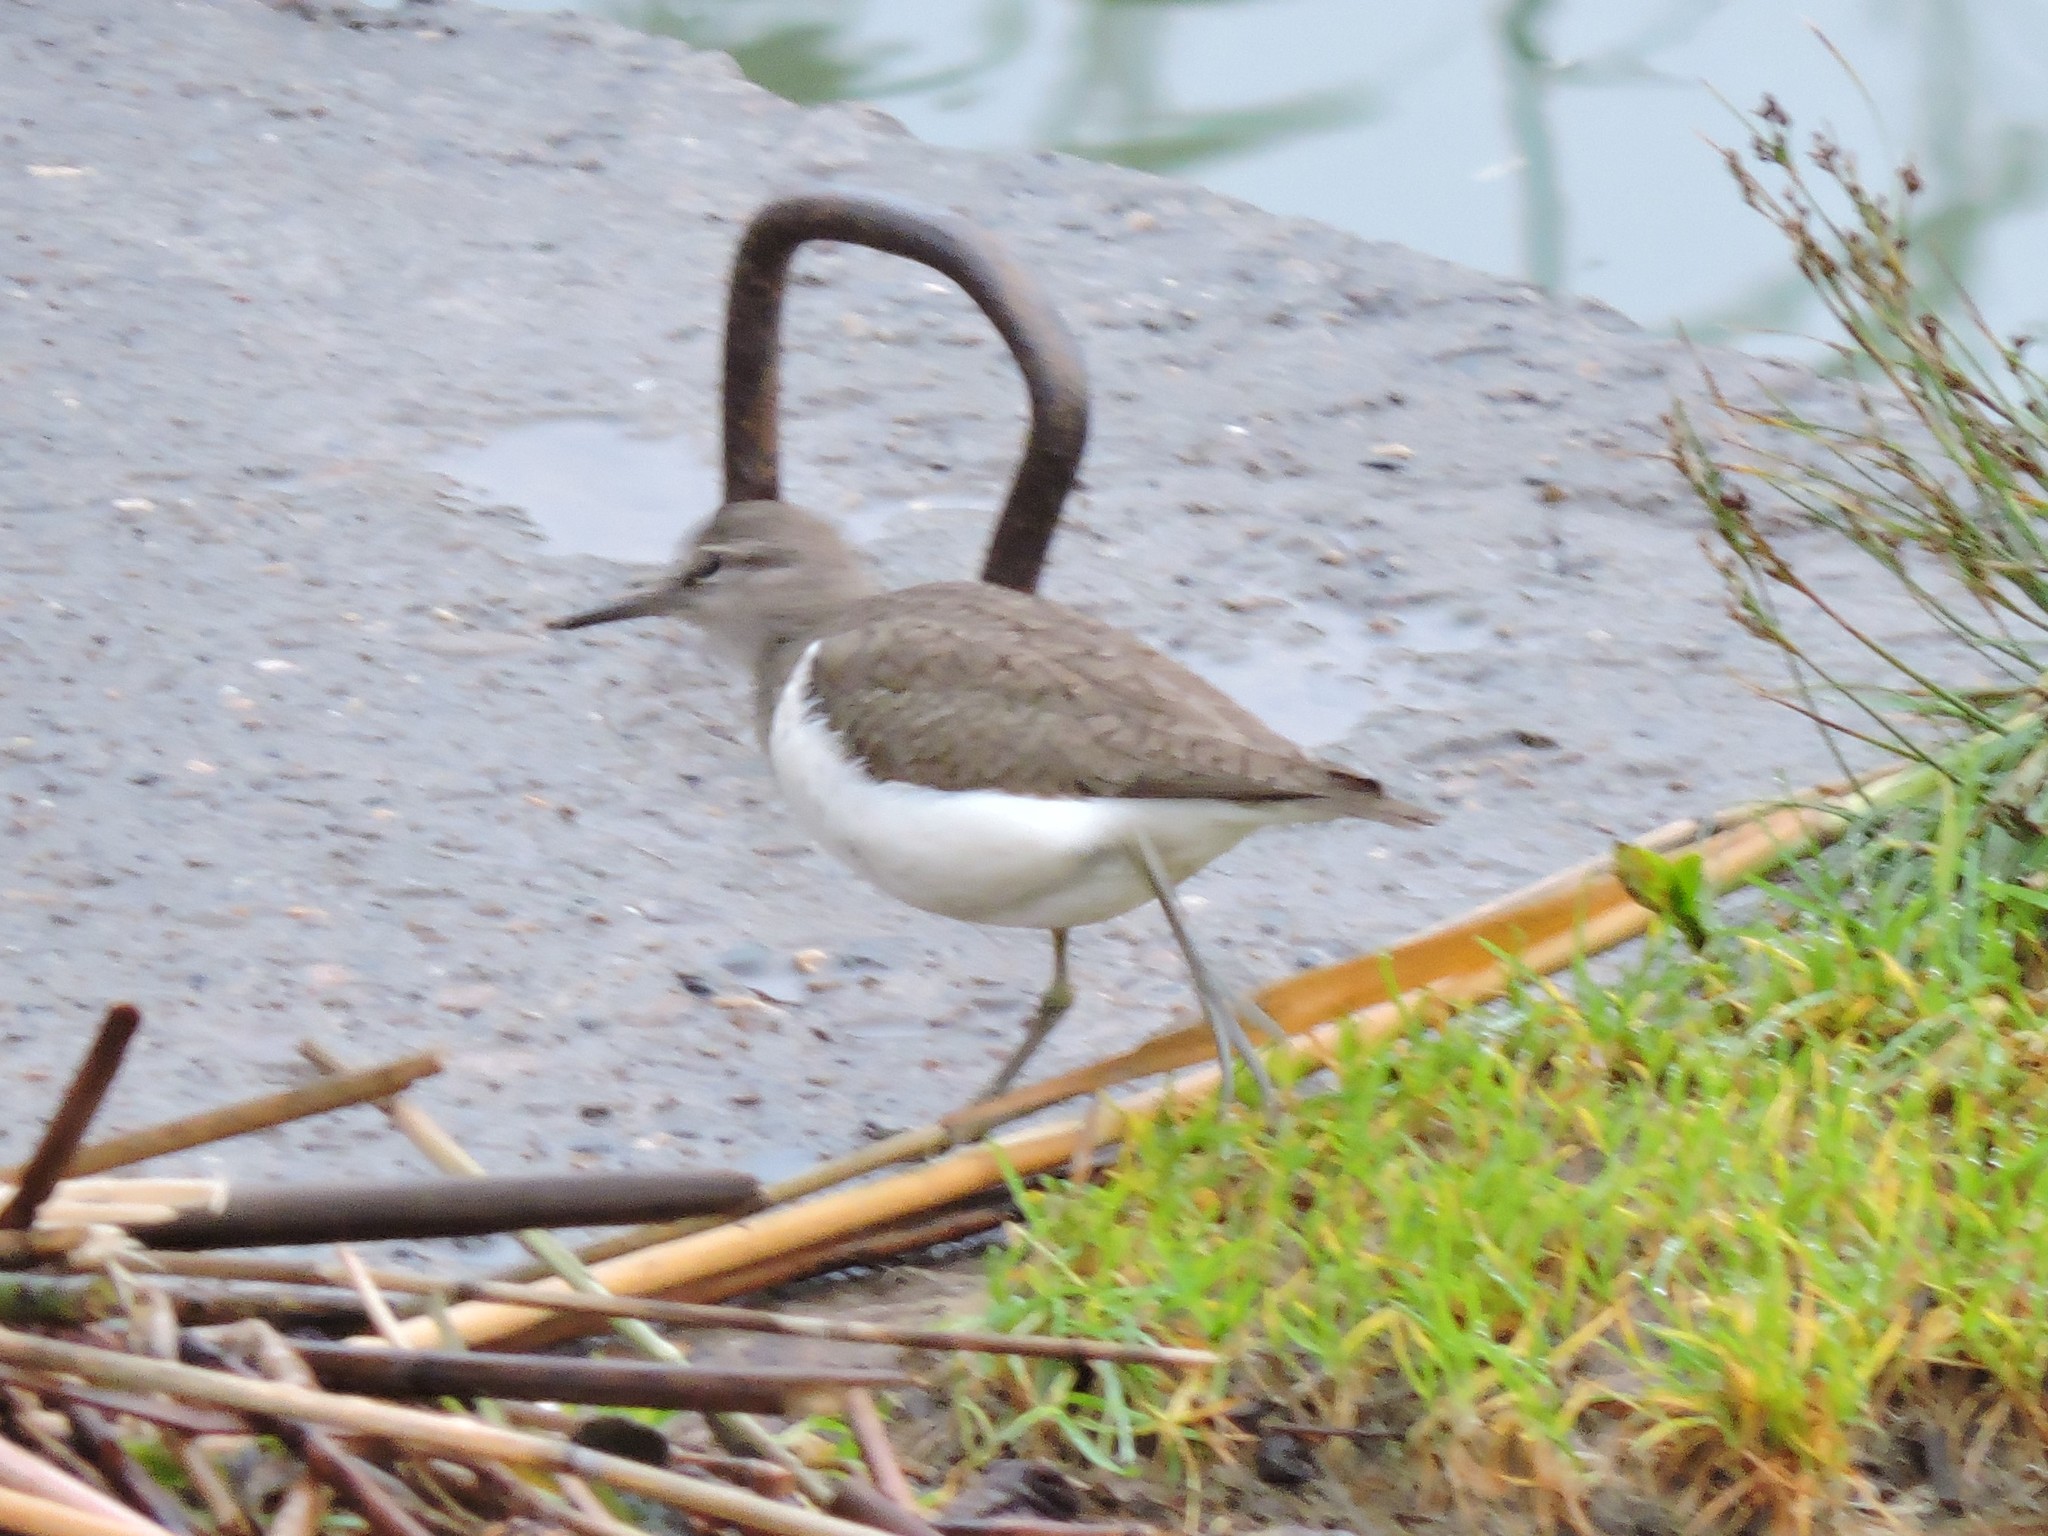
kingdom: Animalia
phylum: Chordata
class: Aves
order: Charadriiformes
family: Scolopacidae
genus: Actitis
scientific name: Actitis hypoleucos
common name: Common sandpiper
